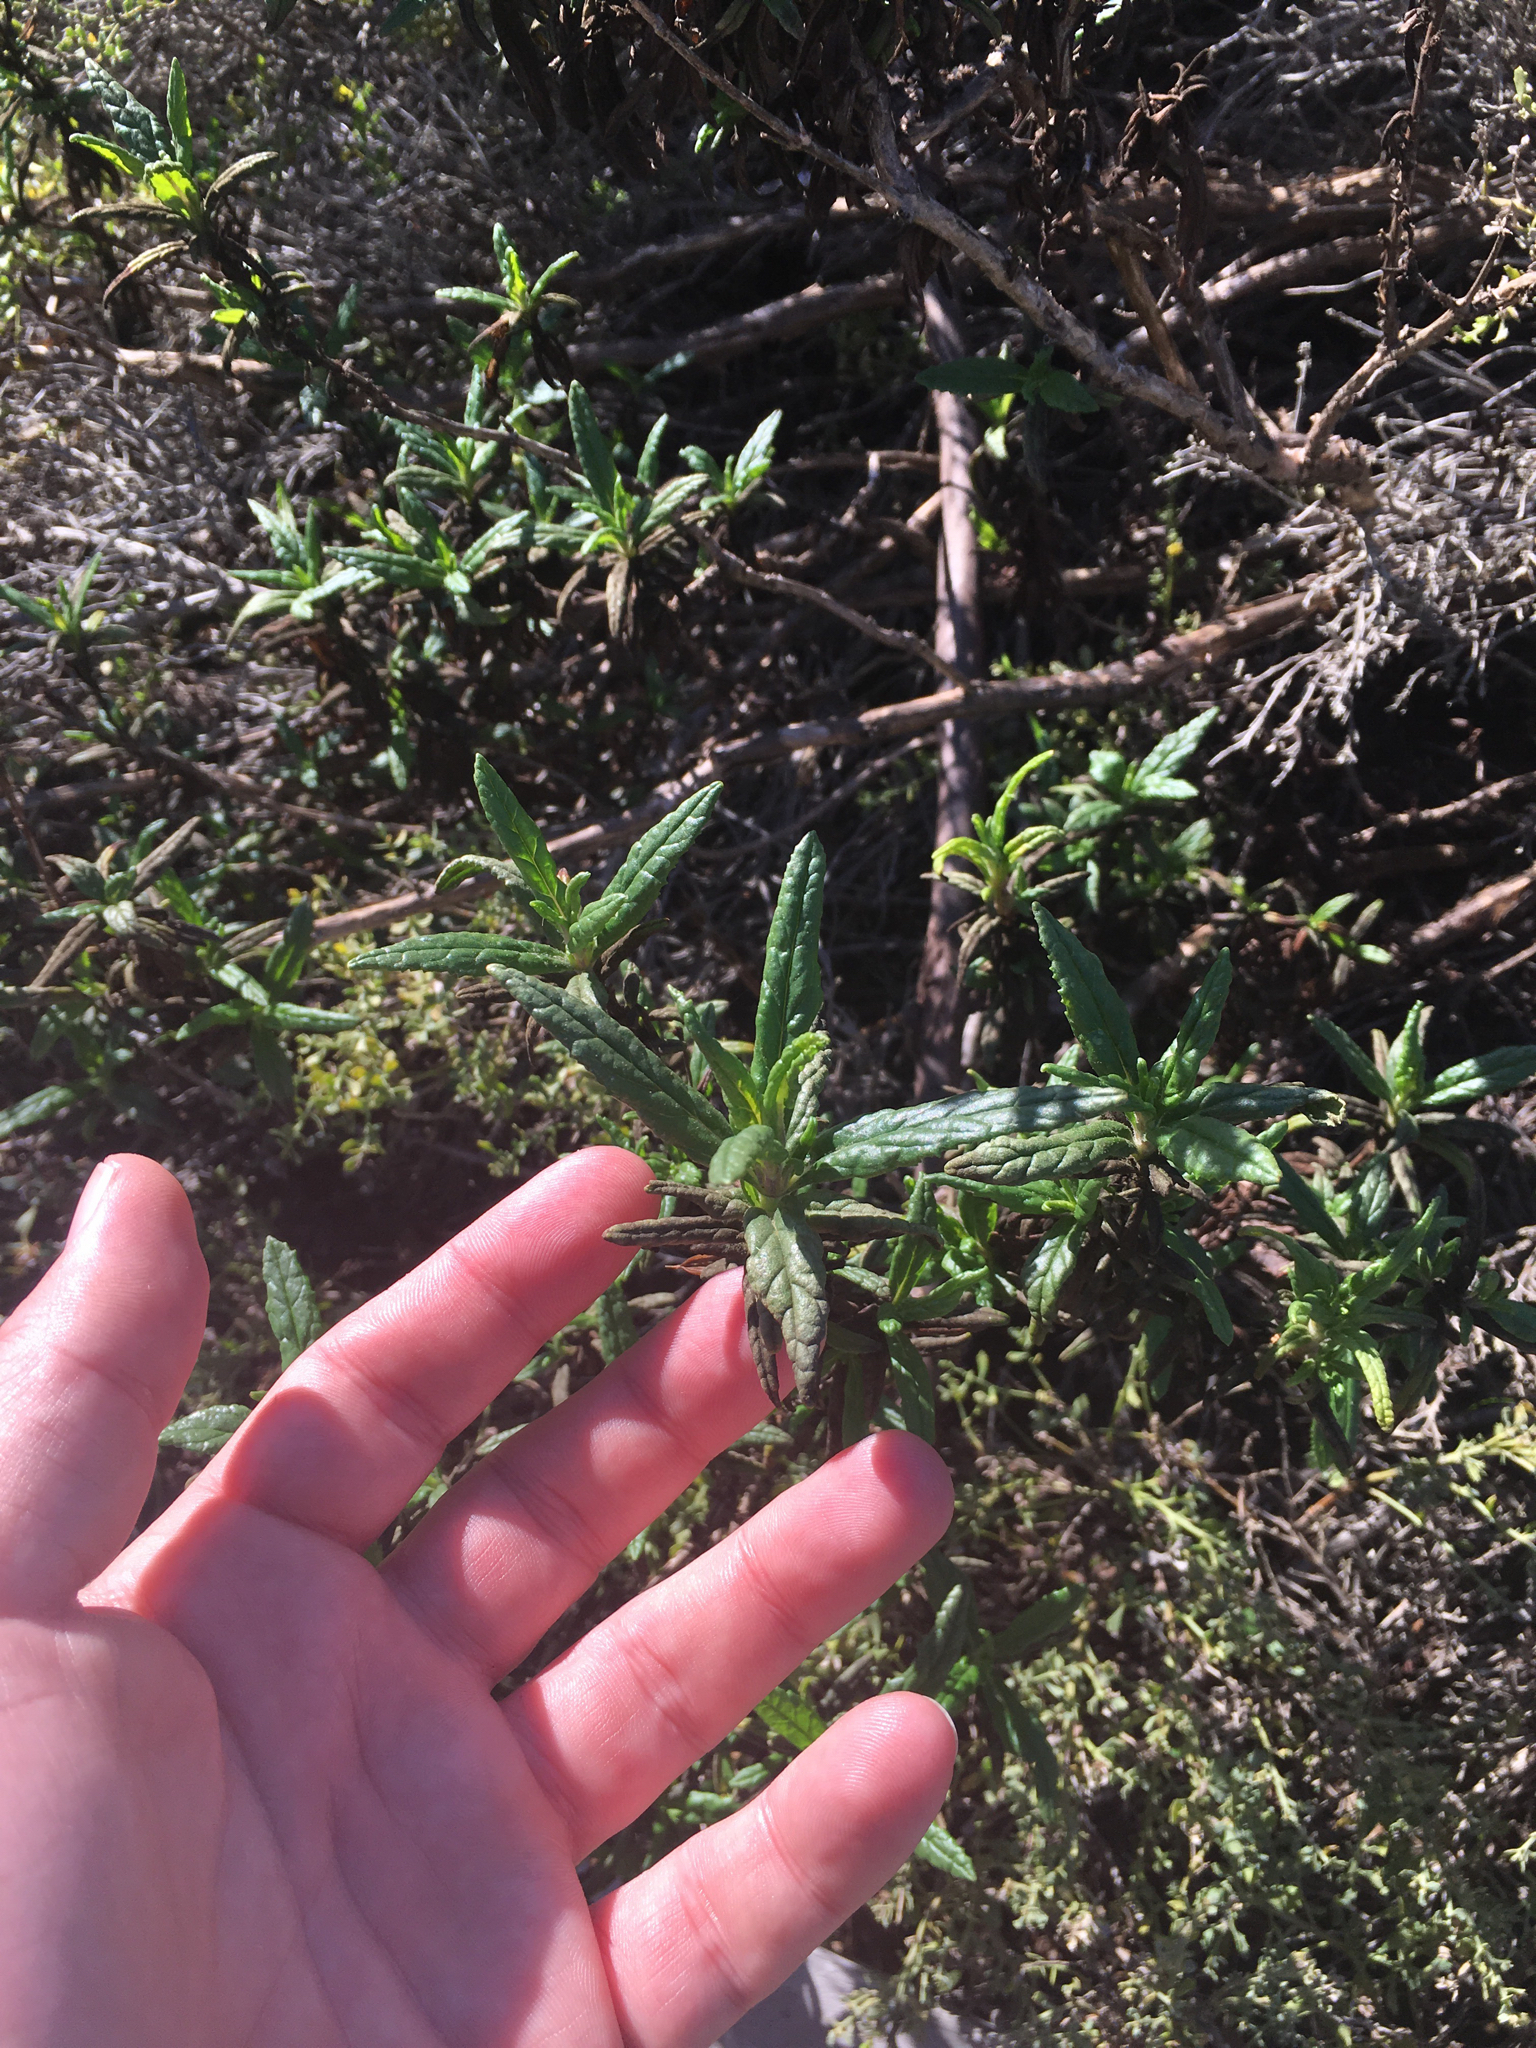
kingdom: Plantae
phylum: Tracheophyta
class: Magnoliopsida
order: Lamiales
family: Phrymaceae
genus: Diplacus
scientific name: Diplacus aurantiacus
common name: Bush monkey-flower
